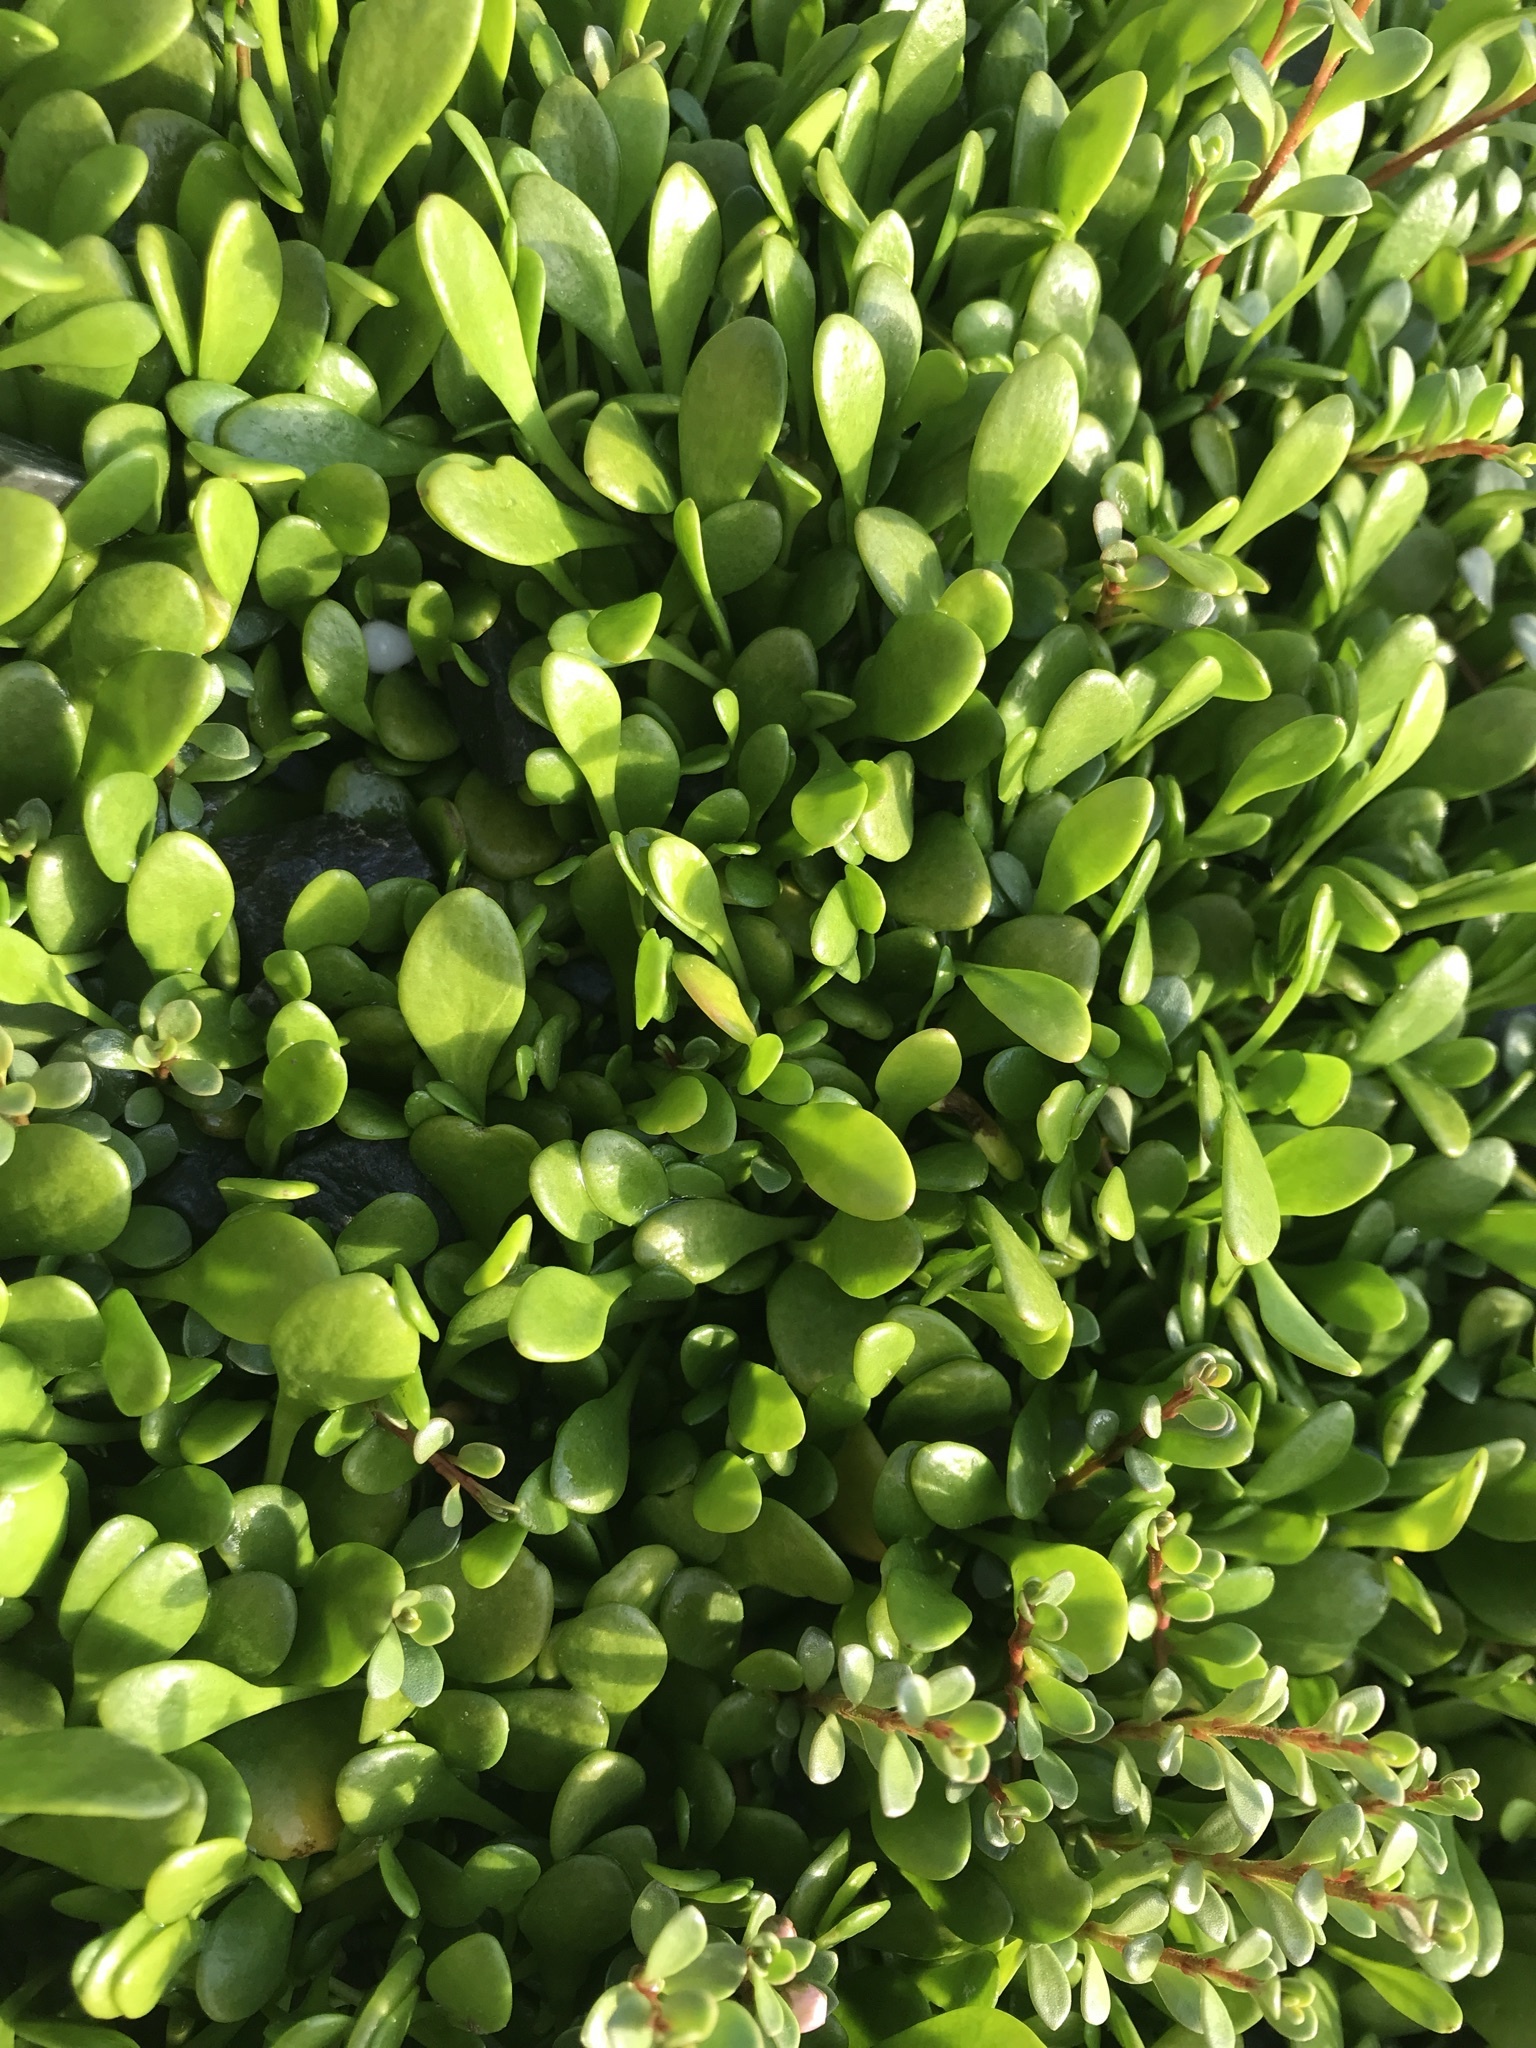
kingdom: Plantae
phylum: Tracheophyta
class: Magnoliopsida
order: Asterales
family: Goodeniaceae
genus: Goodenia
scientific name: Goodenia radicans
